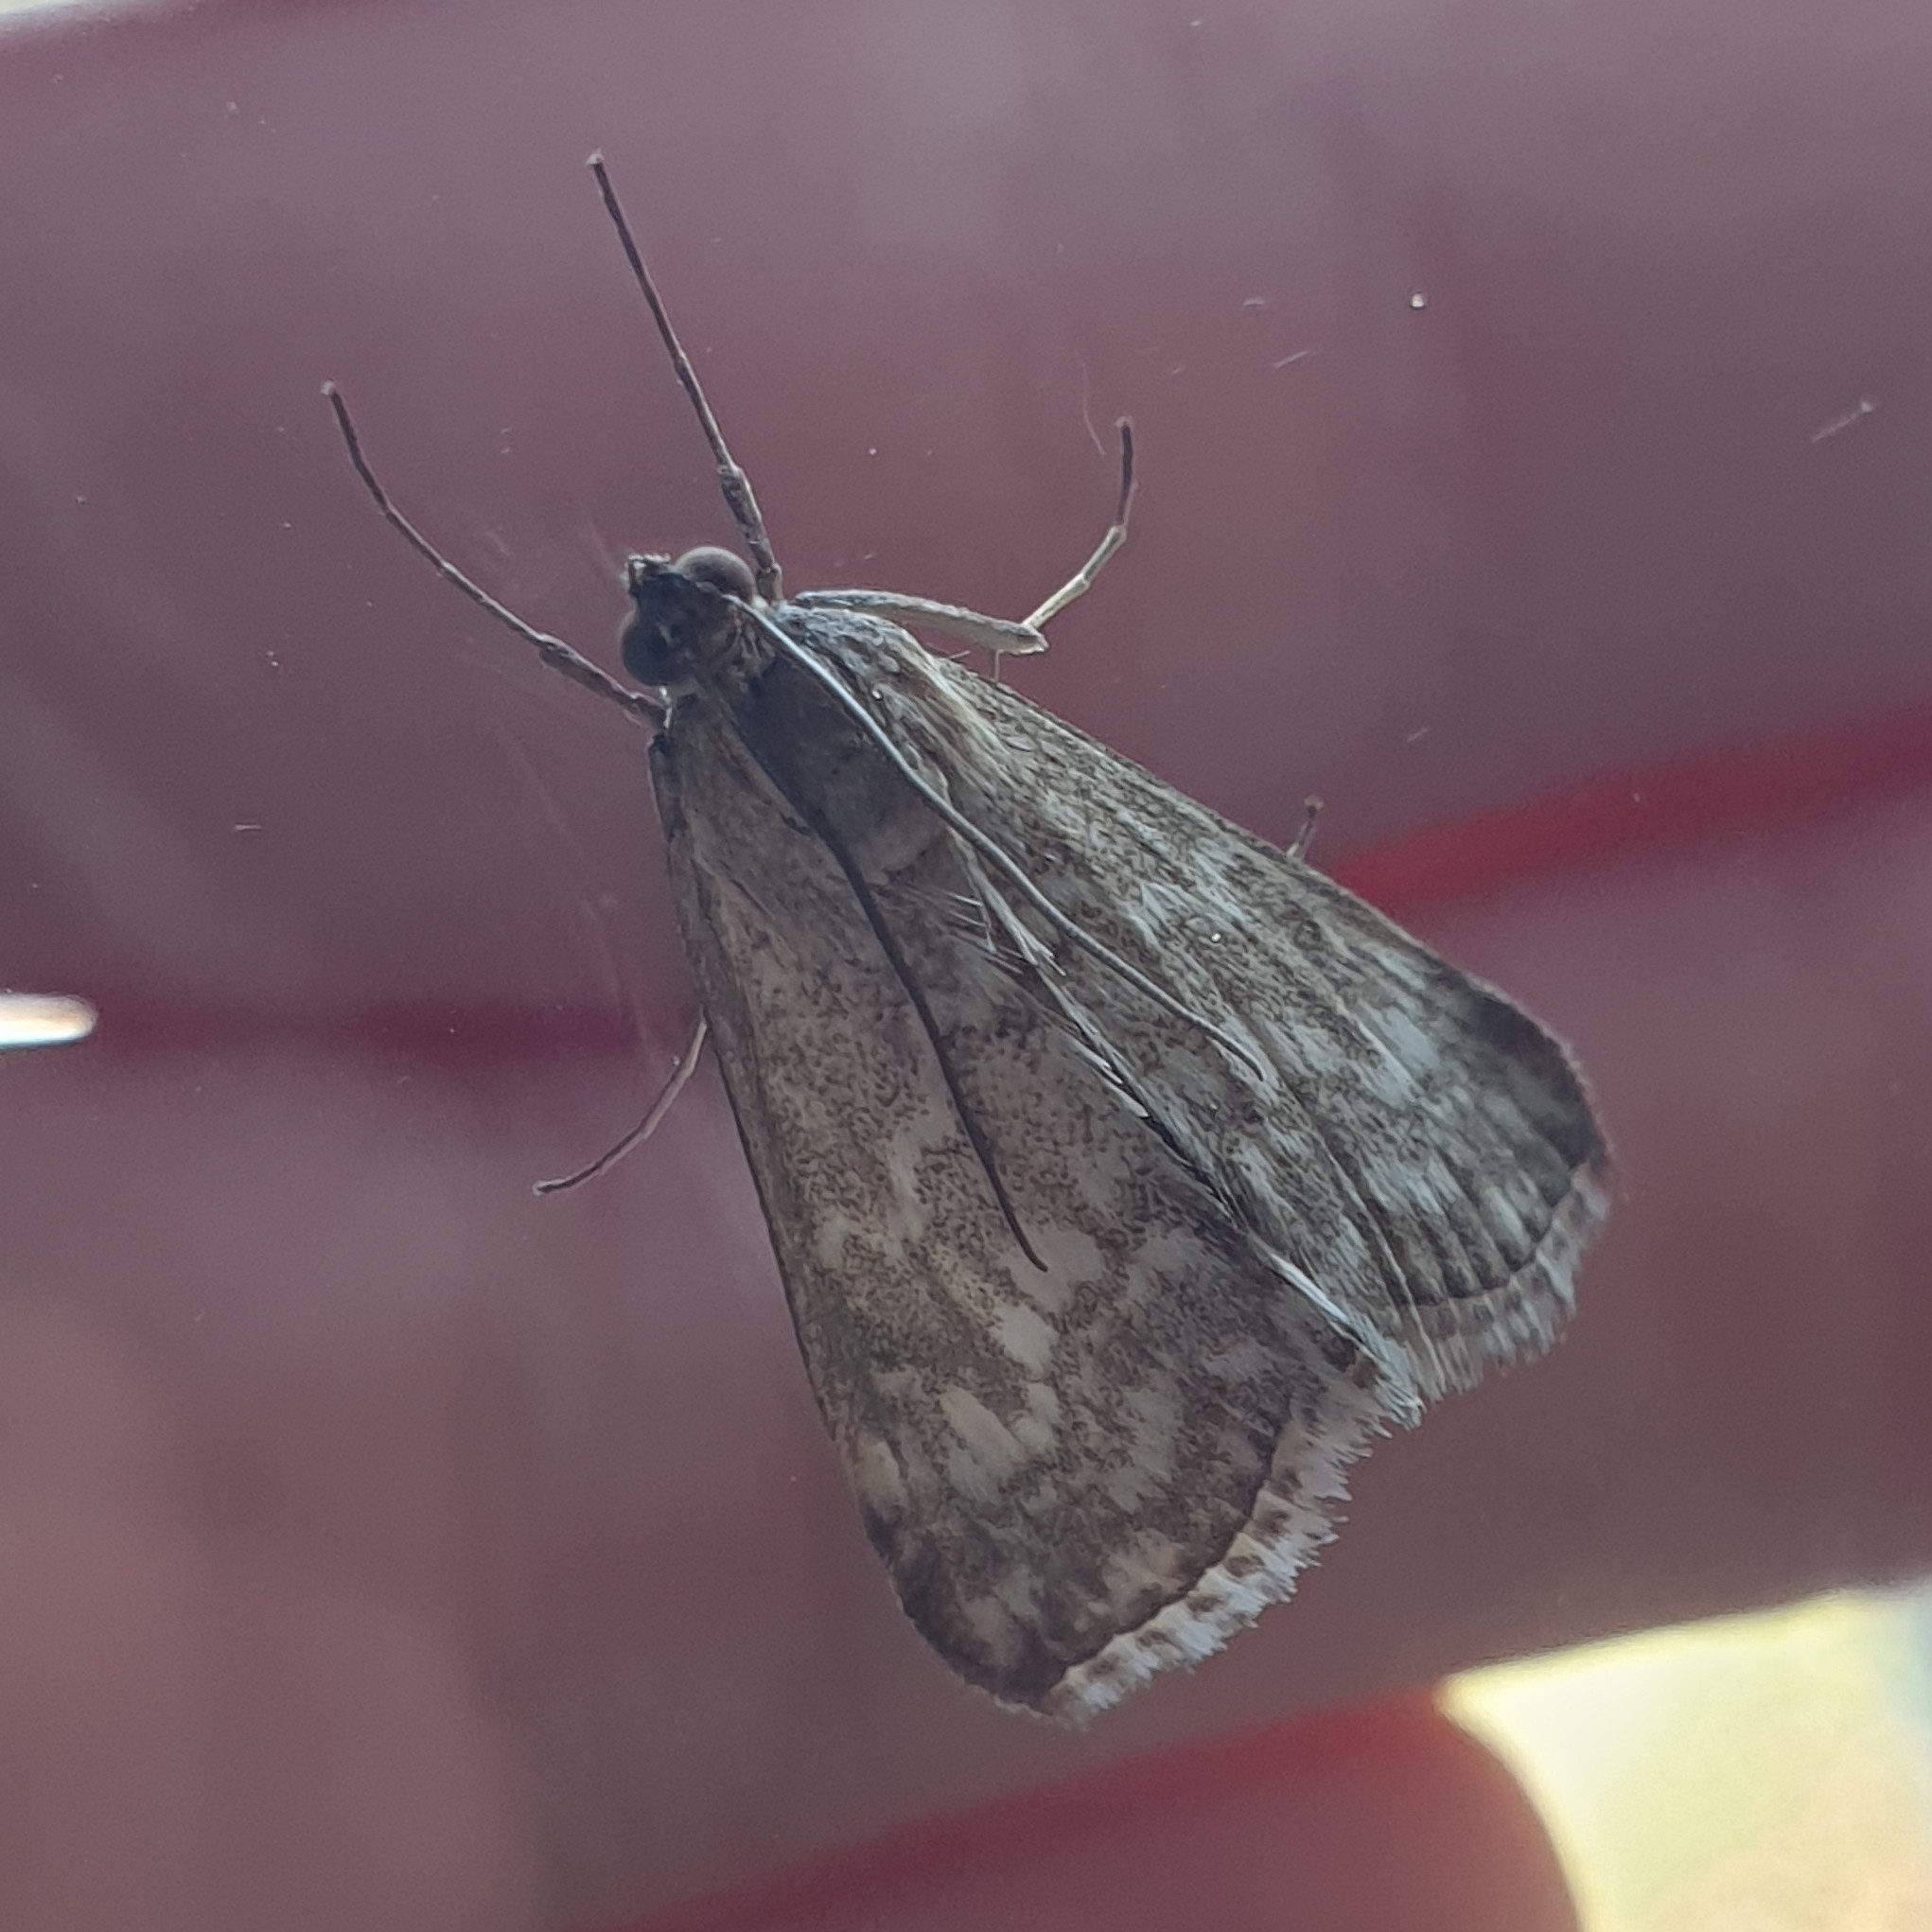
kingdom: Animalia
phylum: Arthropoda
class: Insecta
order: Lepidoptera
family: Crambidae
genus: Evergestis
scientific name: Evergestis frumentalis
